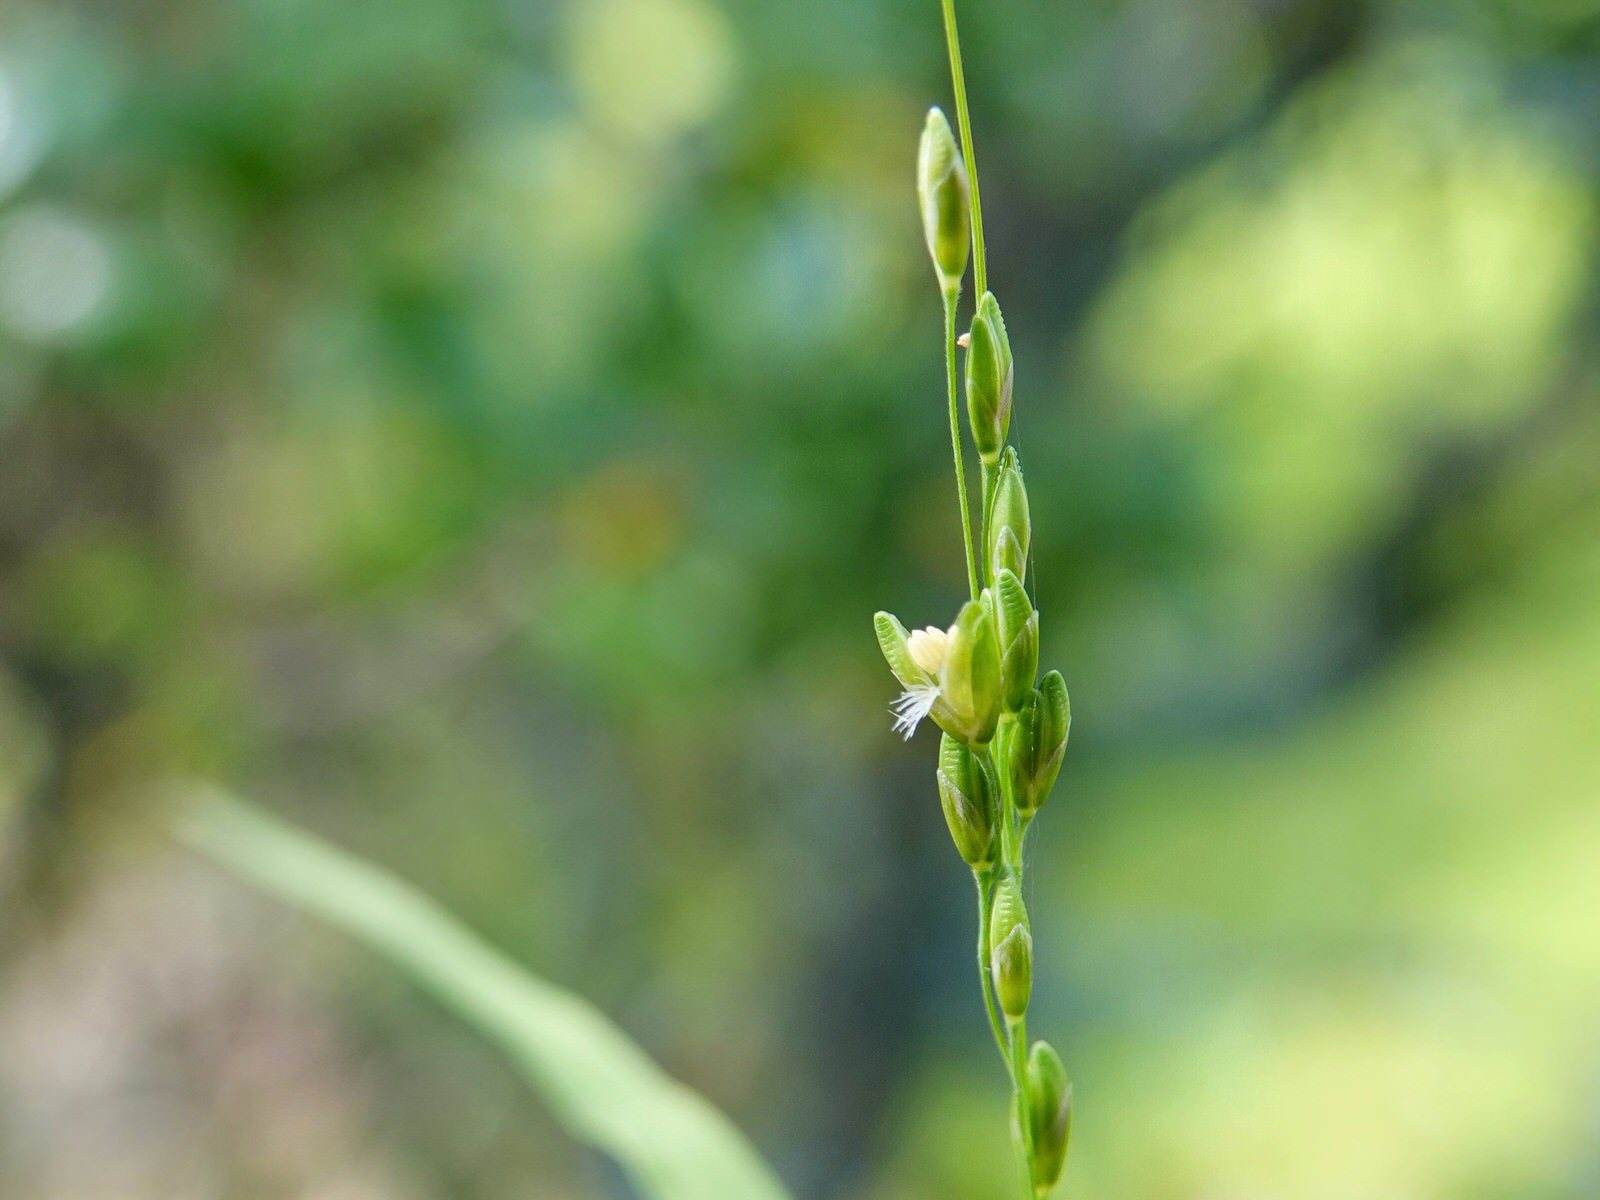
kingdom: Plantae
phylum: Tracheophyta
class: Liliopsida
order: Poales
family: Poaceae
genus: Ehrharta
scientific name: Ehrharta erecta
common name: Panic veldtgrass
